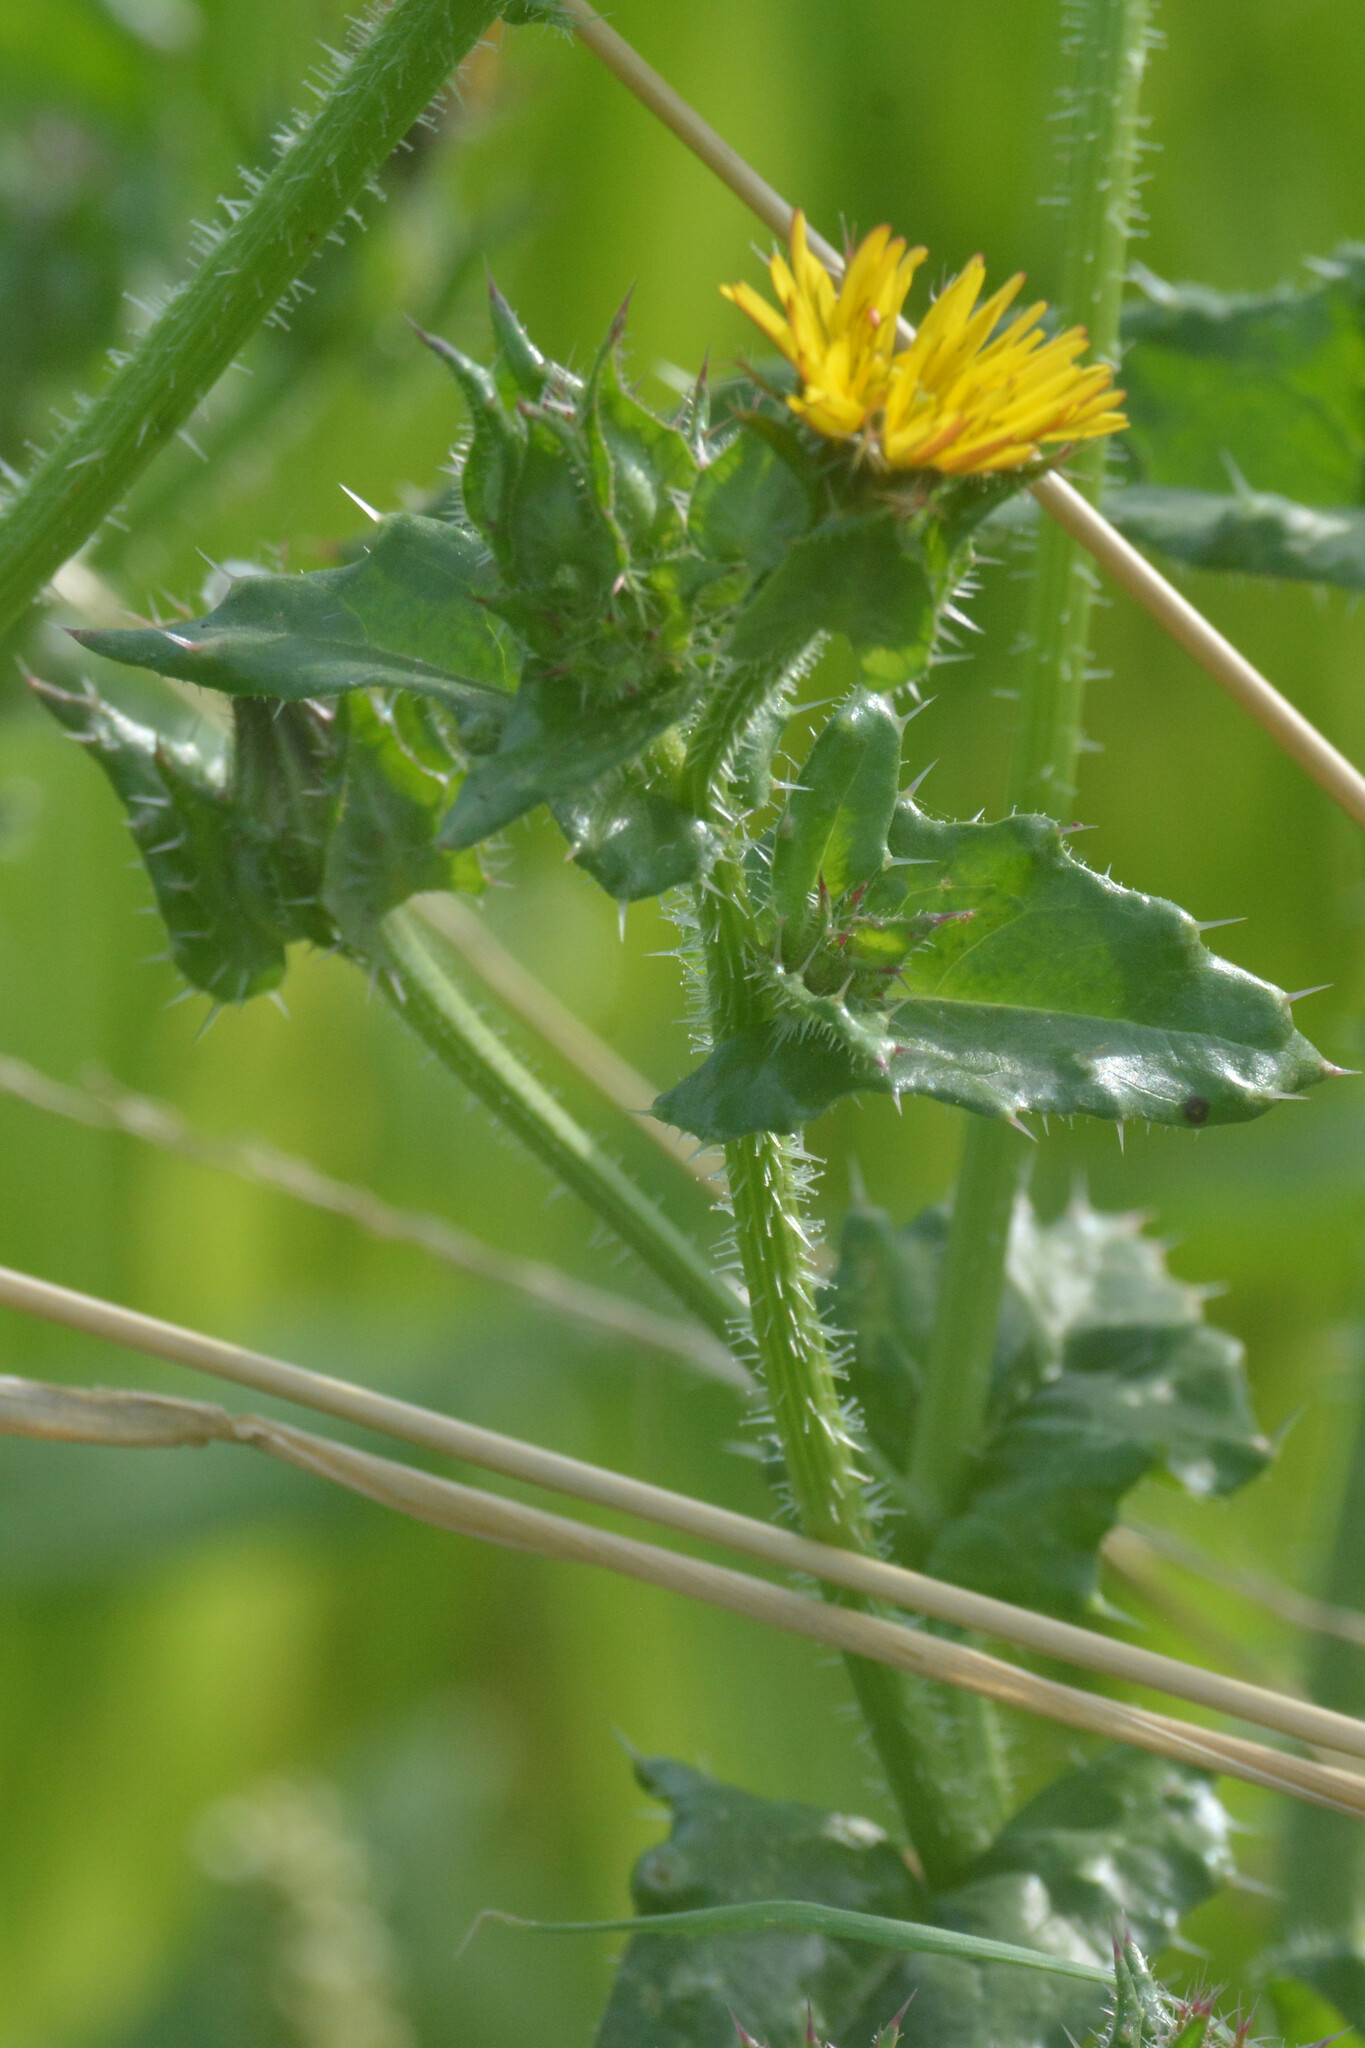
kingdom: Plantae
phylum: Tracheophyta
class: Magnoliopsida
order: Asterales
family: Asteraceae
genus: Helminthotheca
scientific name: Helminthotheca echioides
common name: Ox-tongue
